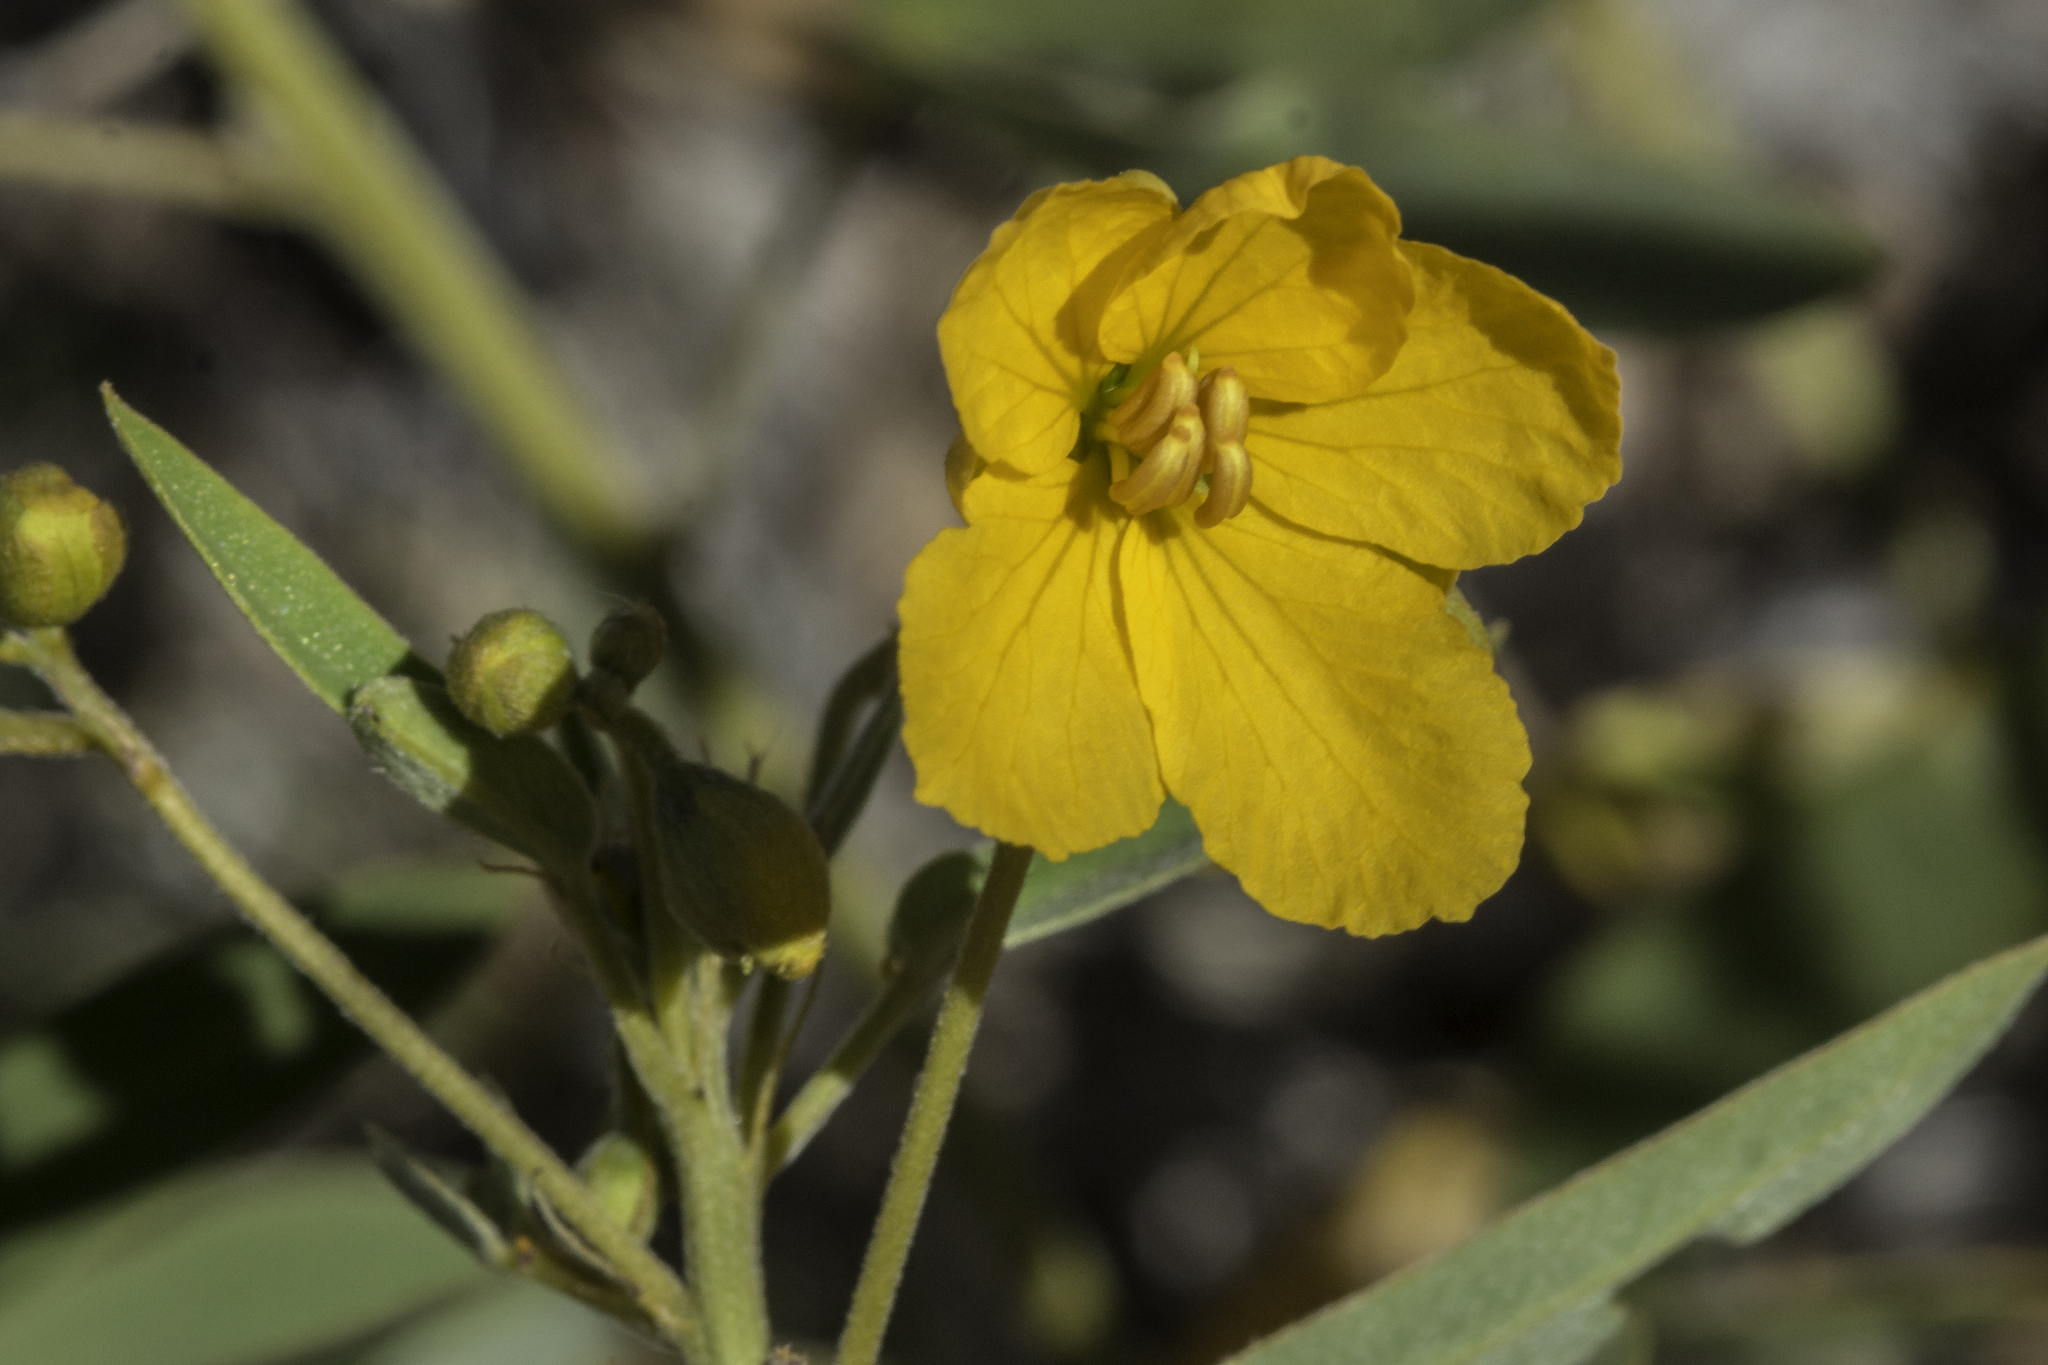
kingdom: Plantae
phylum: Tracheophyta
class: Magnoliopsida
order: Fabales
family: Fabaceae
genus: Senna
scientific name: Senna roemeriana
